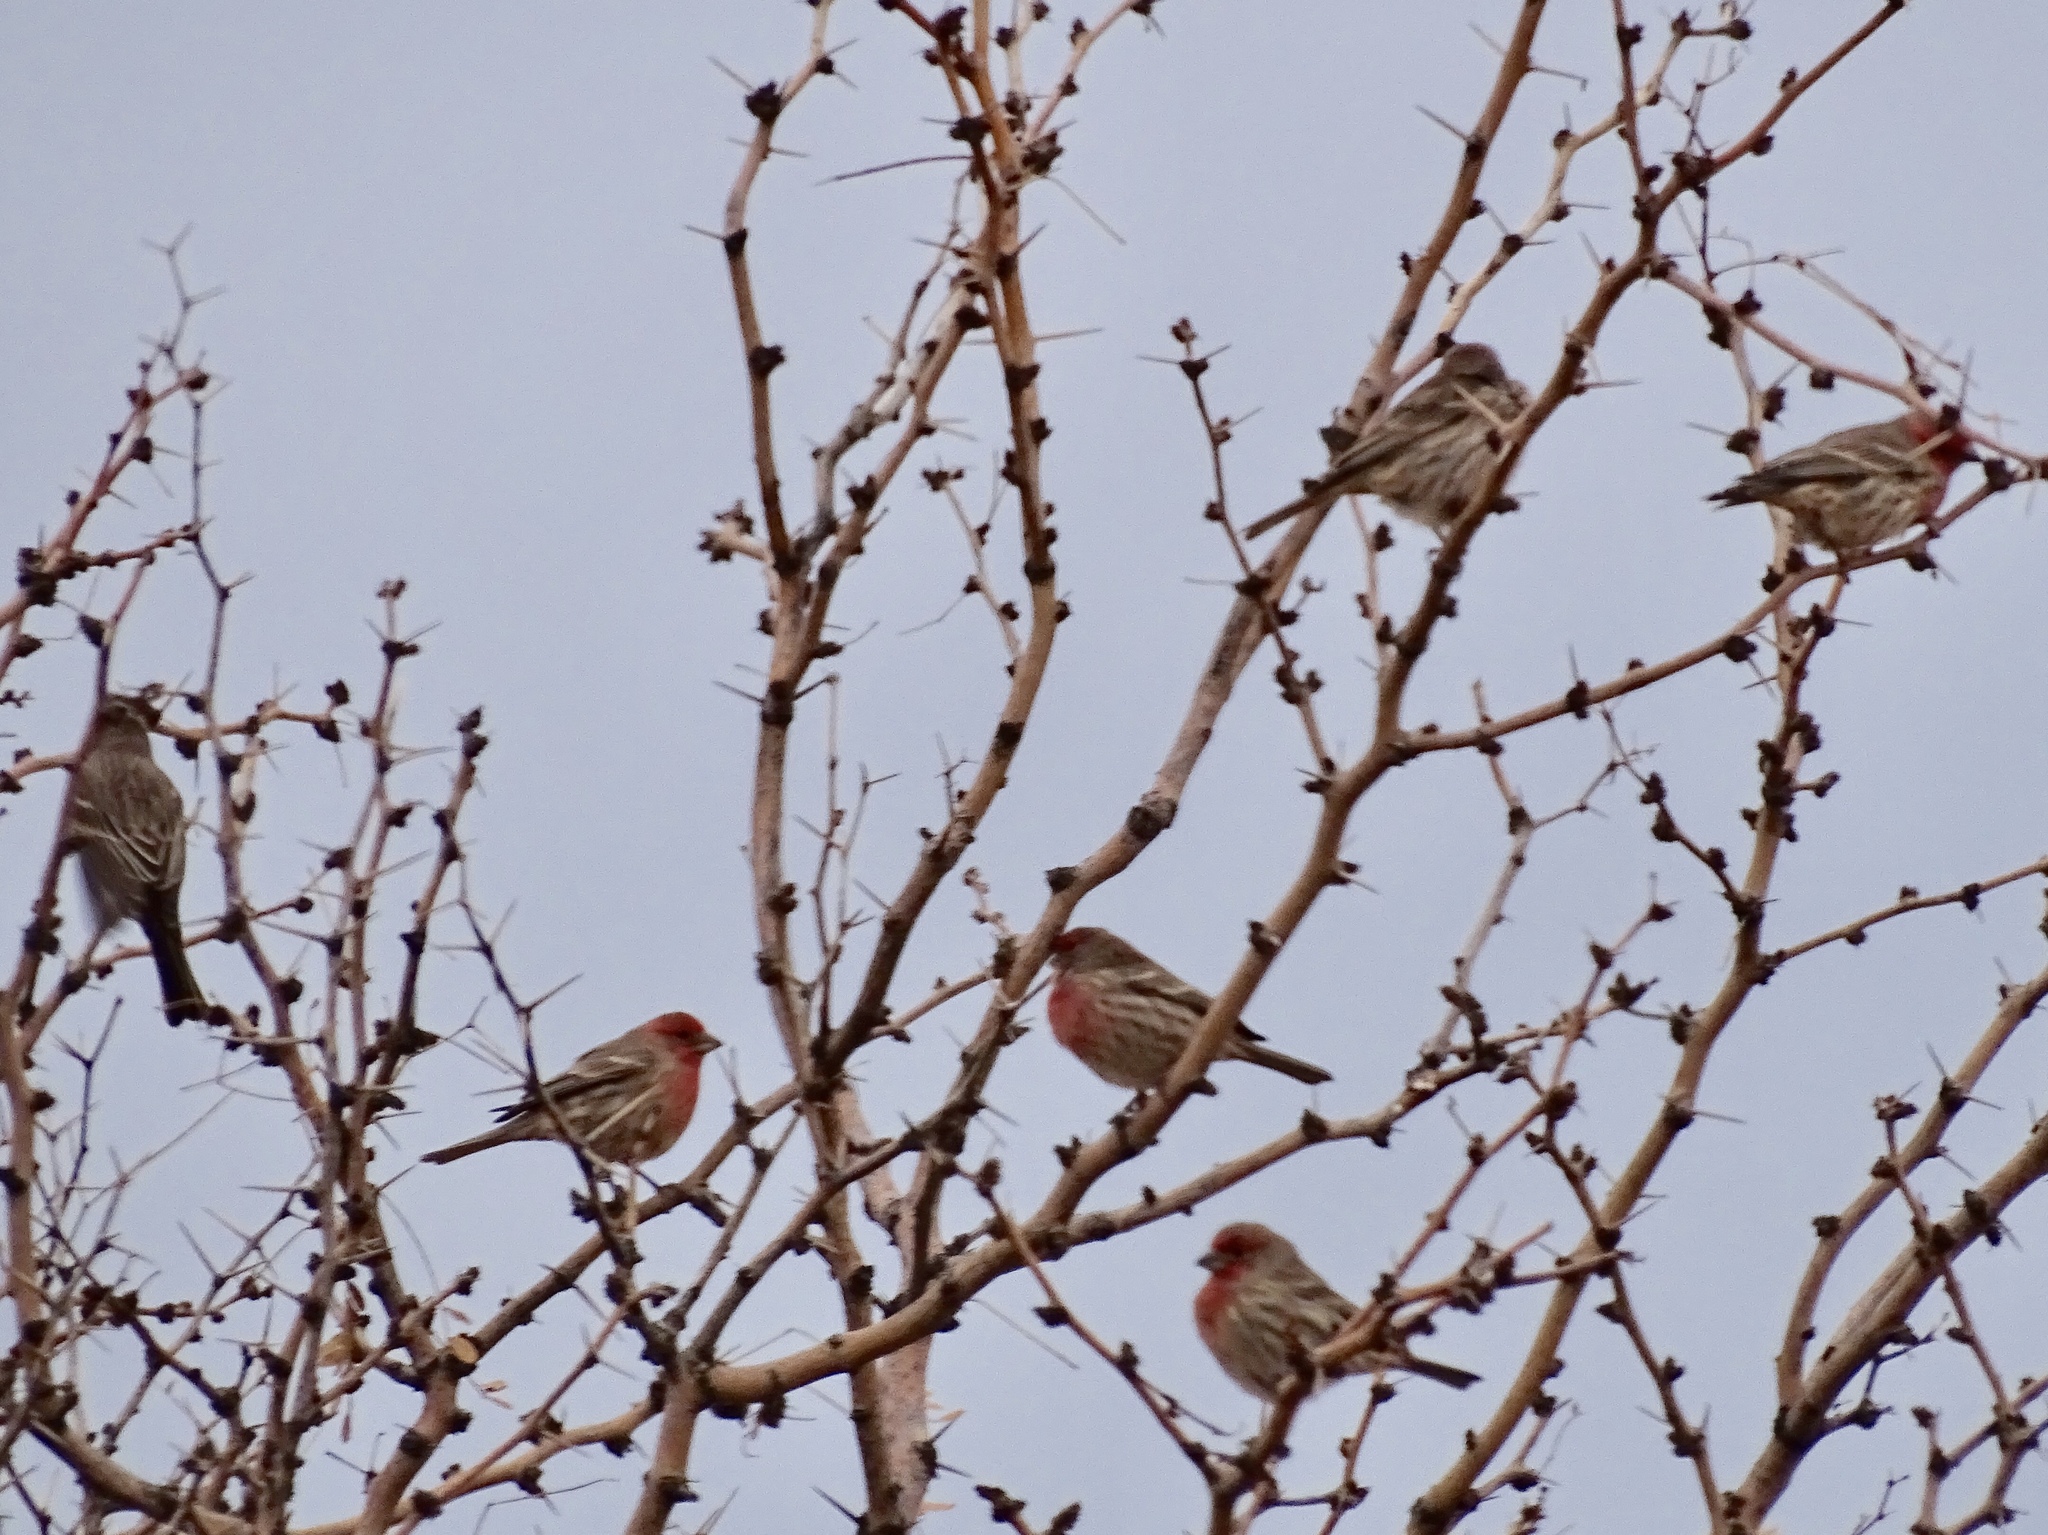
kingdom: Animalia
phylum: Chordata
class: Aves
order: Passeriformes
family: Fringillidae
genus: Haemorhous
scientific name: Haemorhous mexicanus
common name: House finch
